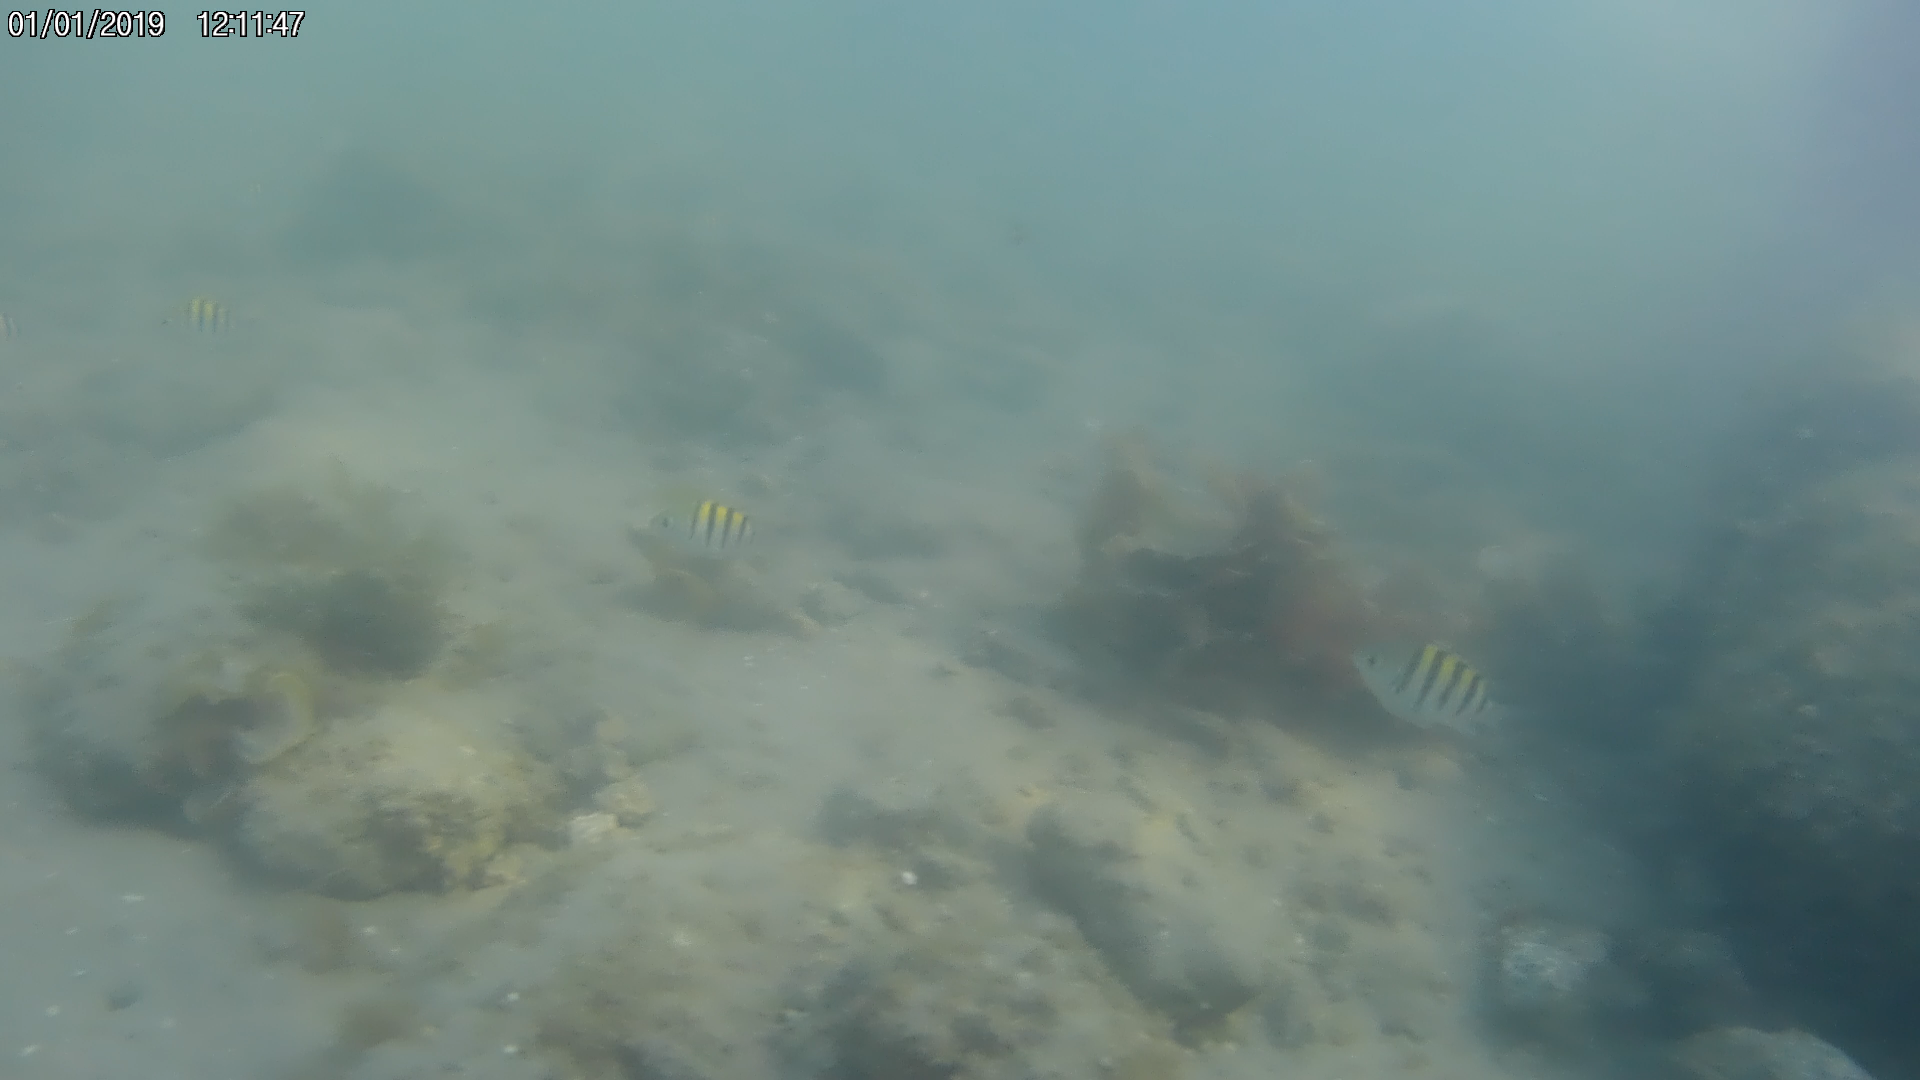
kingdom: Animalia
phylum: Chordata
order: Perciformes
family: Pomacentridae
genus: Abudefduf
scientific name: Abudefduf saxatilis
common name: Sergeant major
